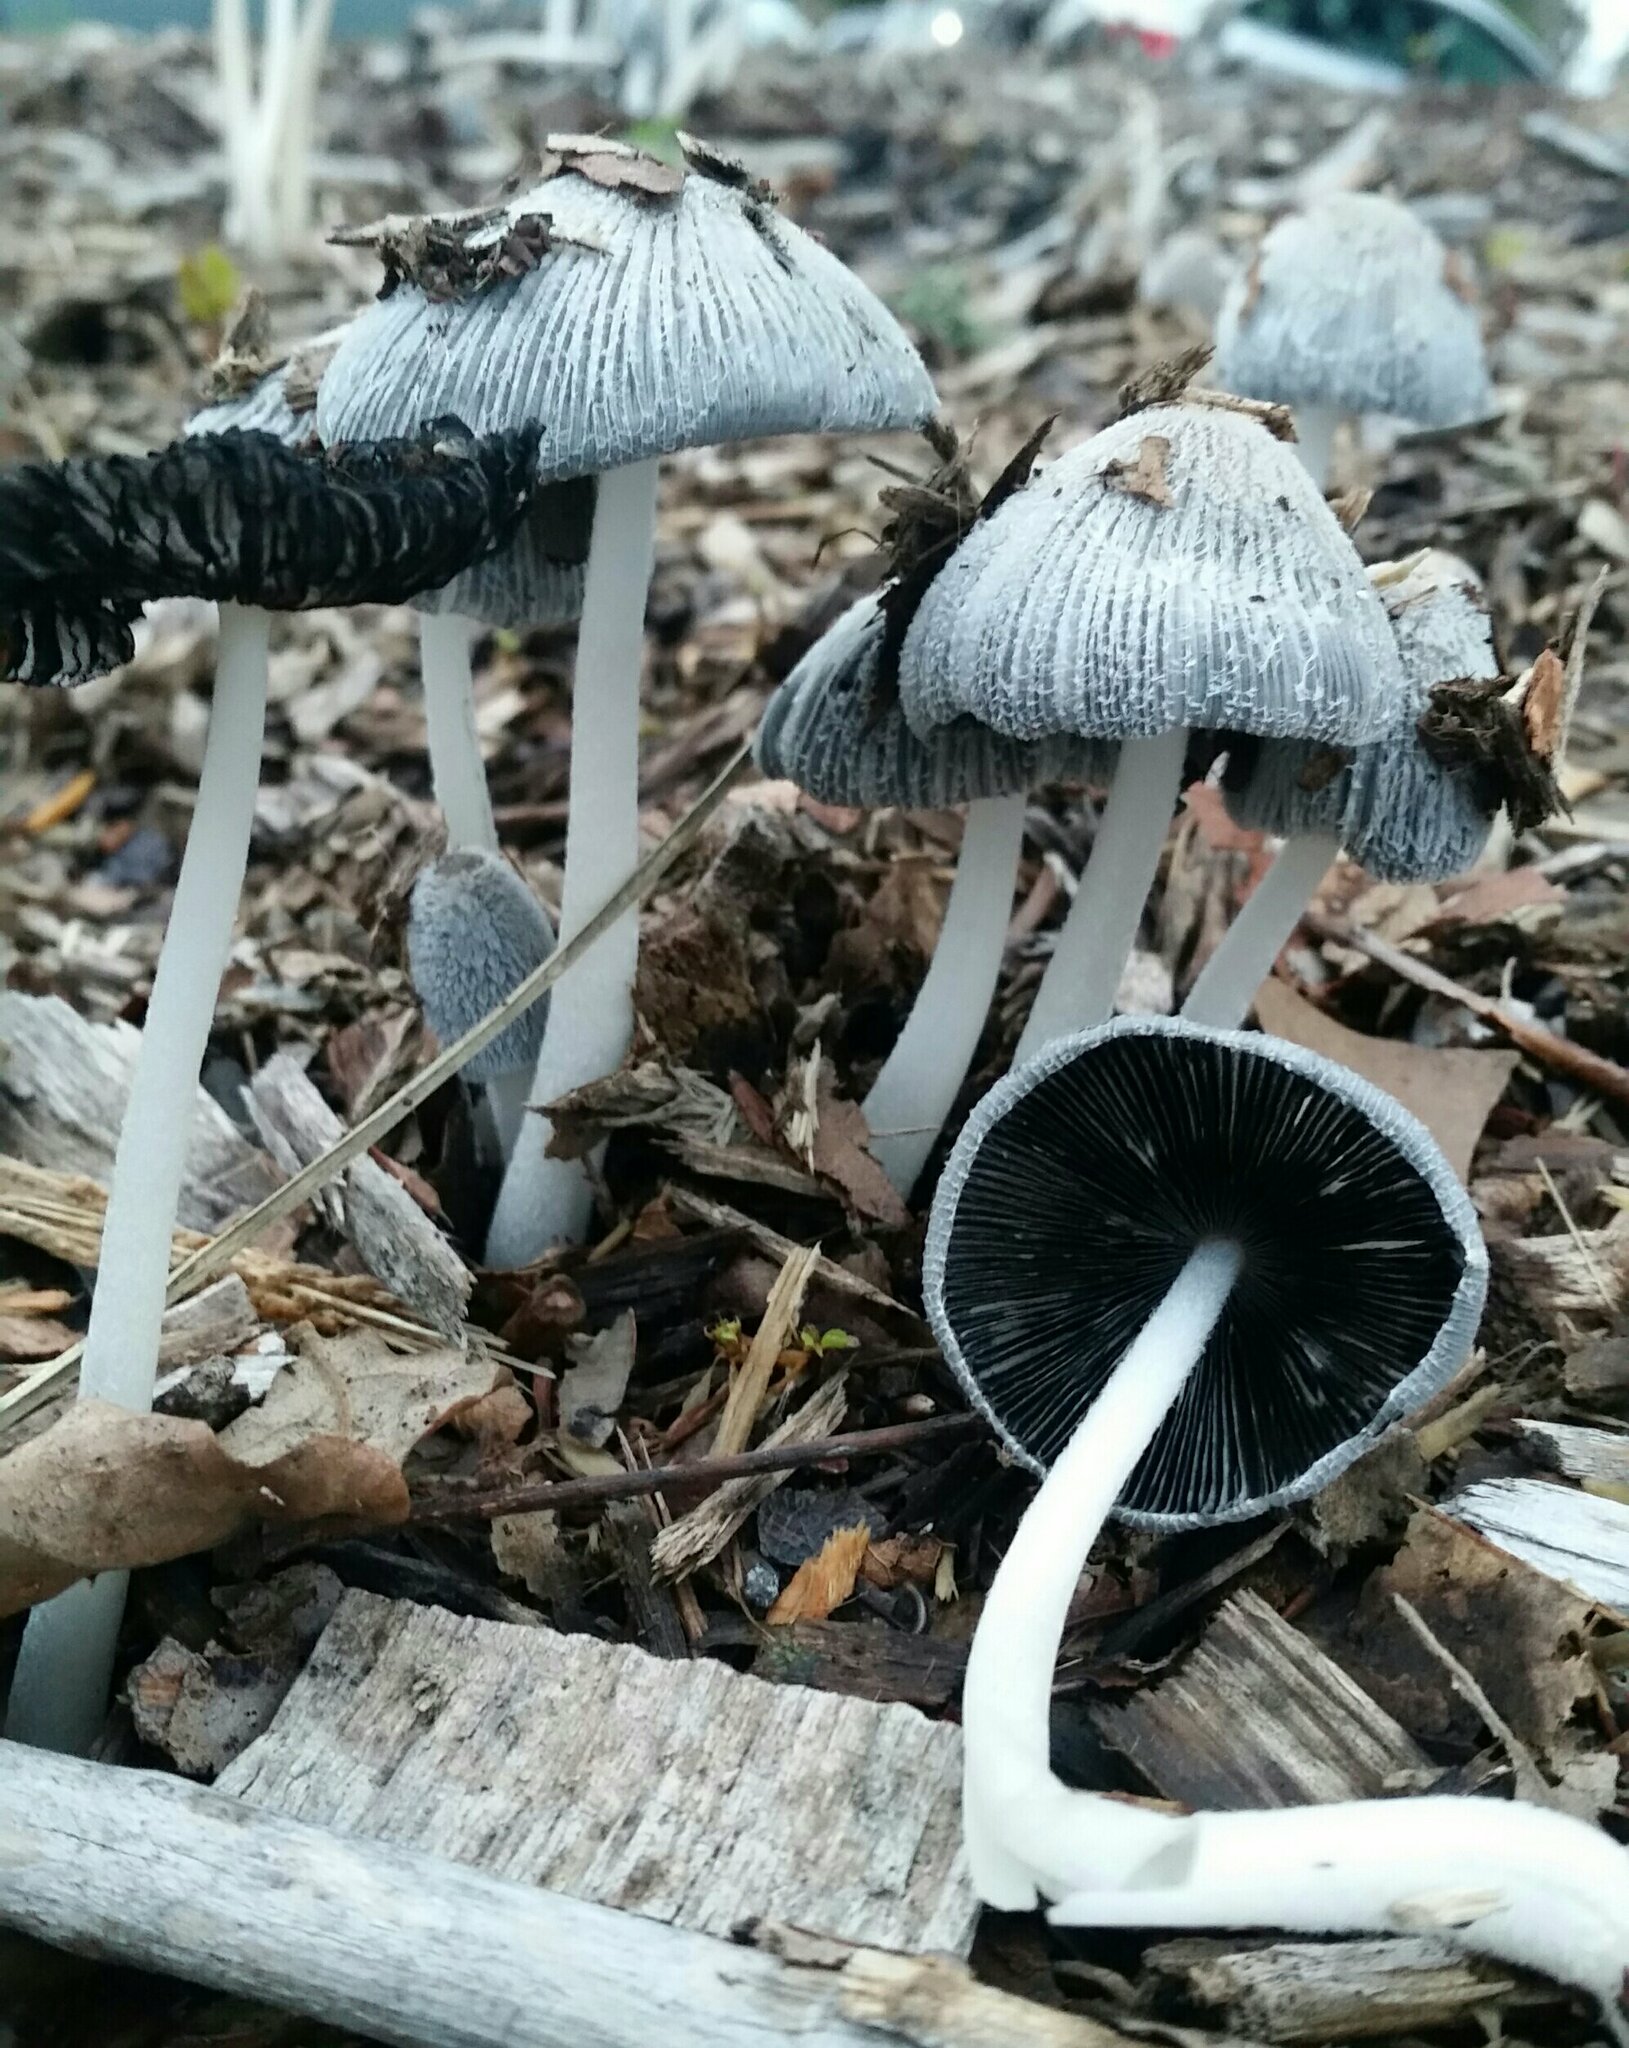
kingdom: Fungi
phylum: Basidiomycota
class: Agaricomycetes
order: Agaricales
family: Psathyrellaceae
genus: Coprinopsis
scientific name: Coprinopsis lagopus
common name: Hare'sfoot inkcap
